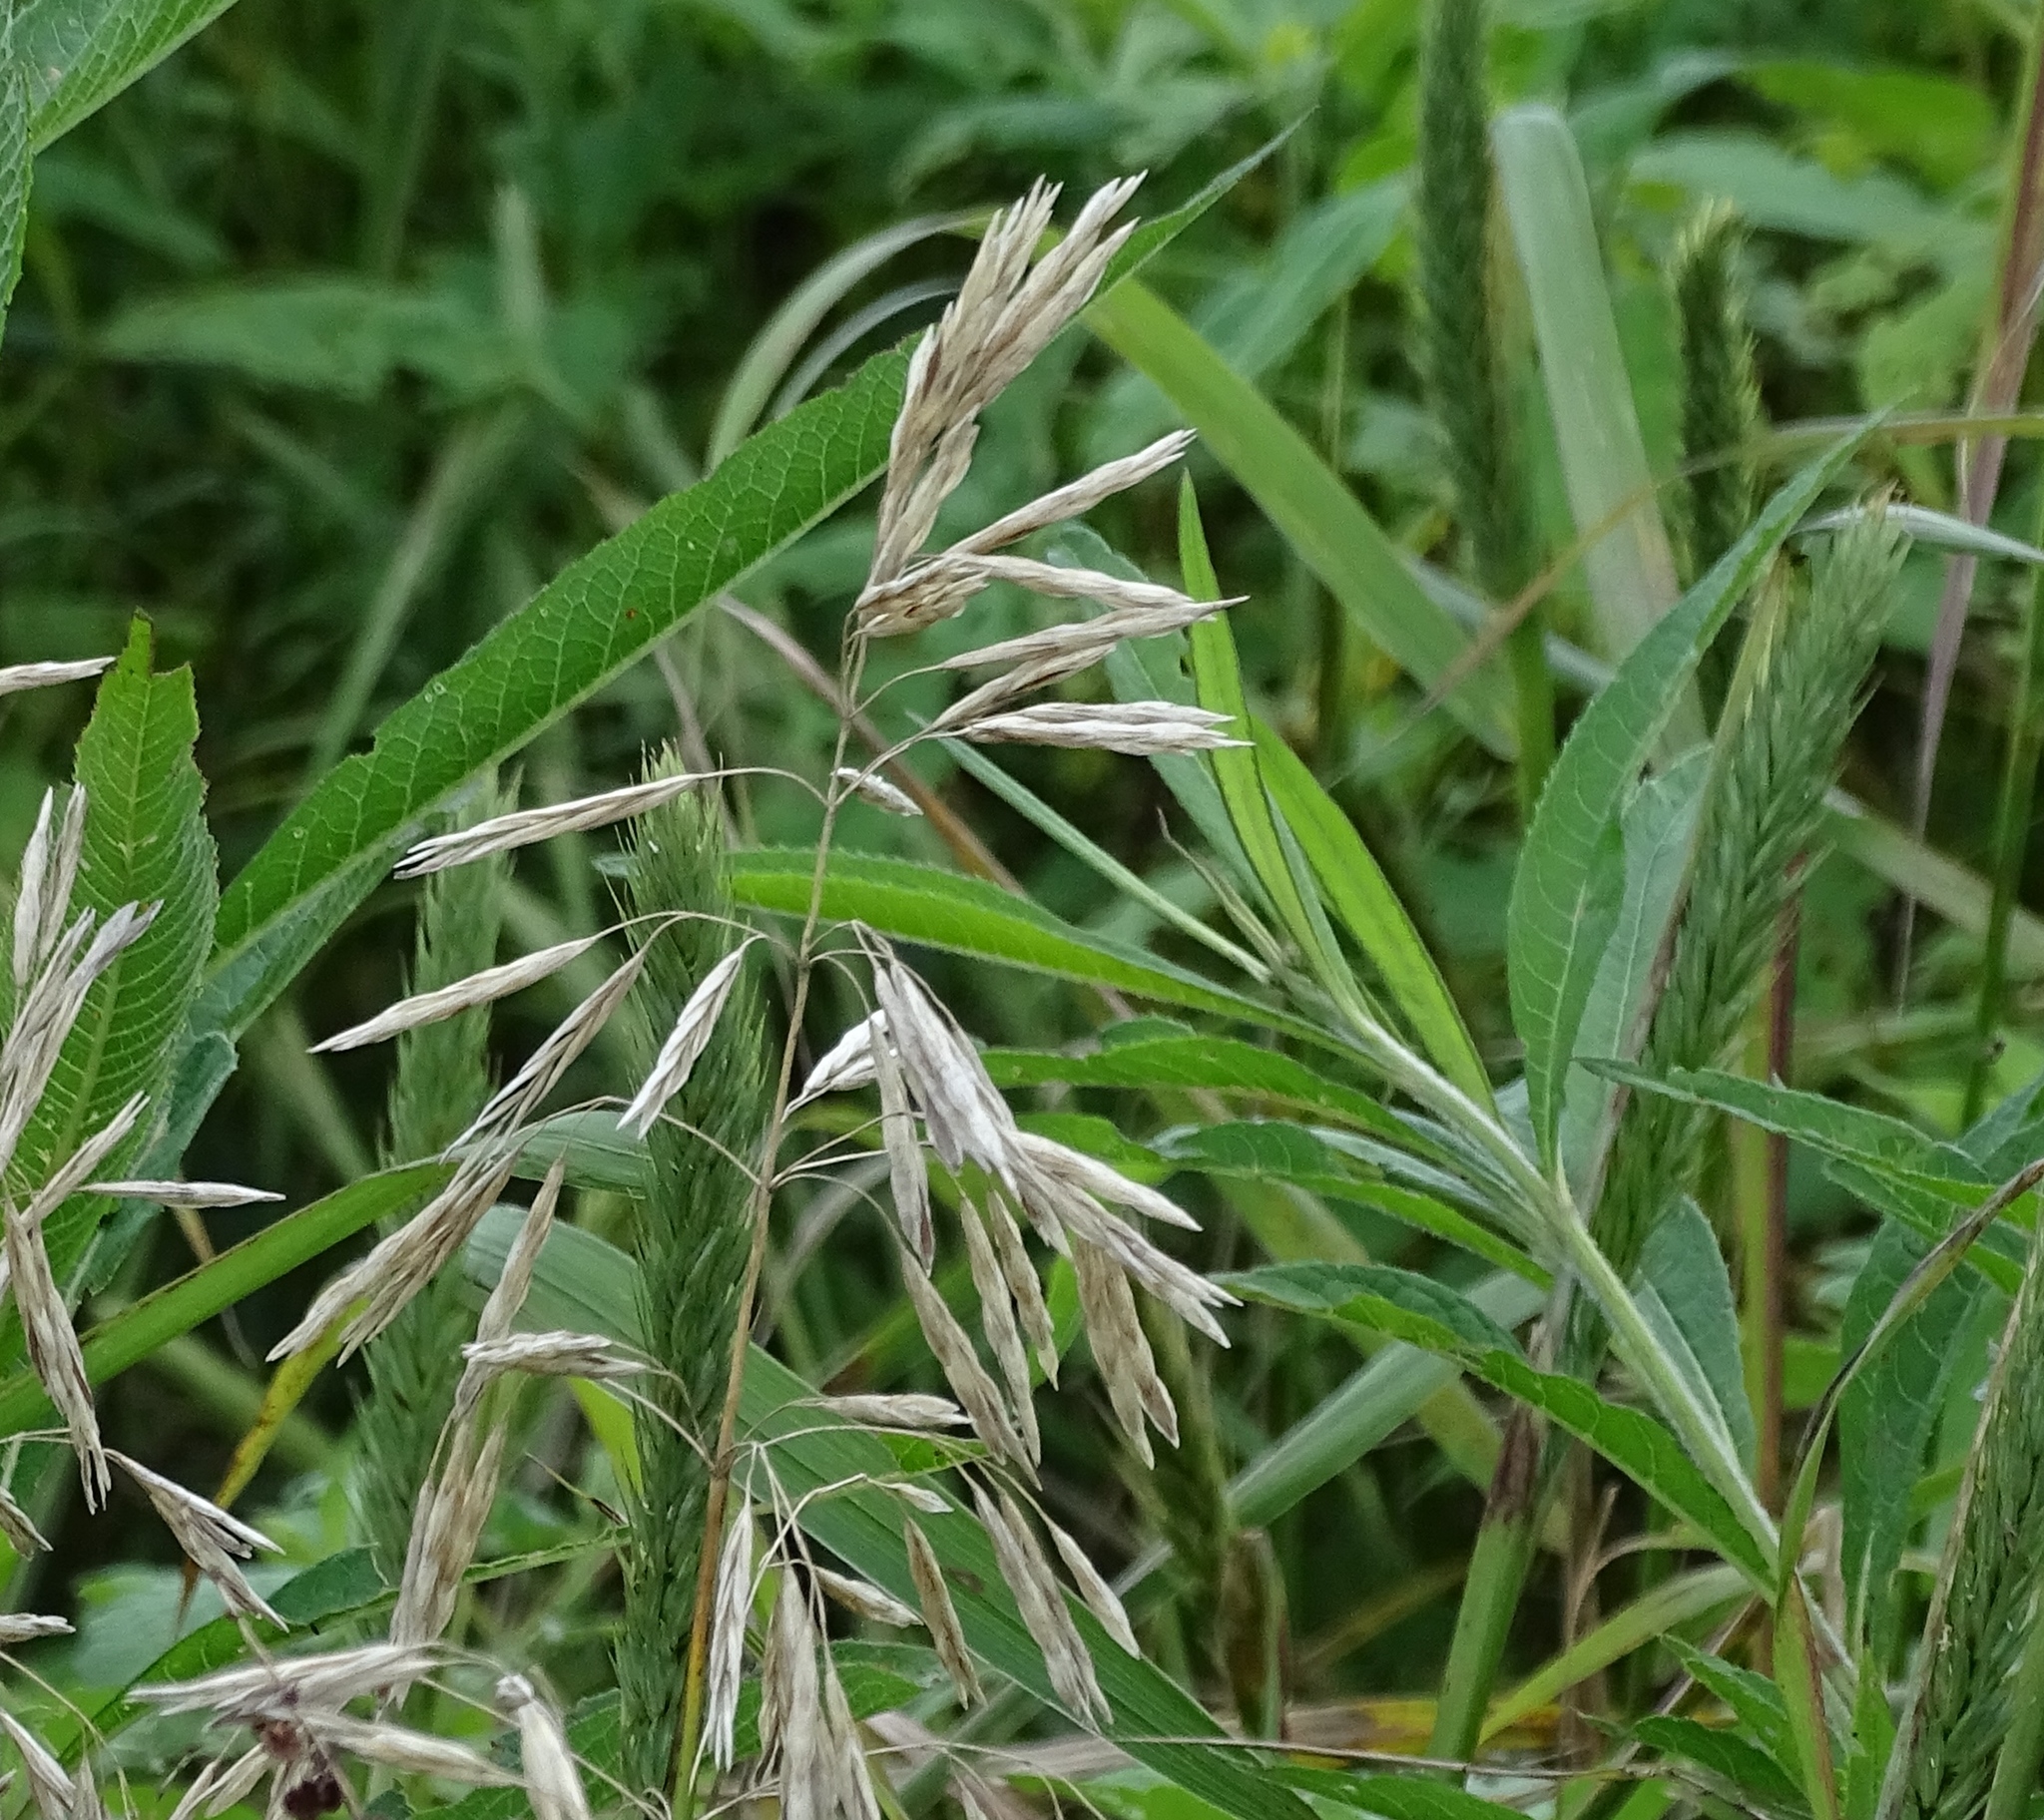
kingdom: Plantae
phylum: Tracheophyta
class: Liliopsida
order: Poales
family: Poaceae
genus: Bromus
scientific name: Bromus inermis
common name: Smooth brome
